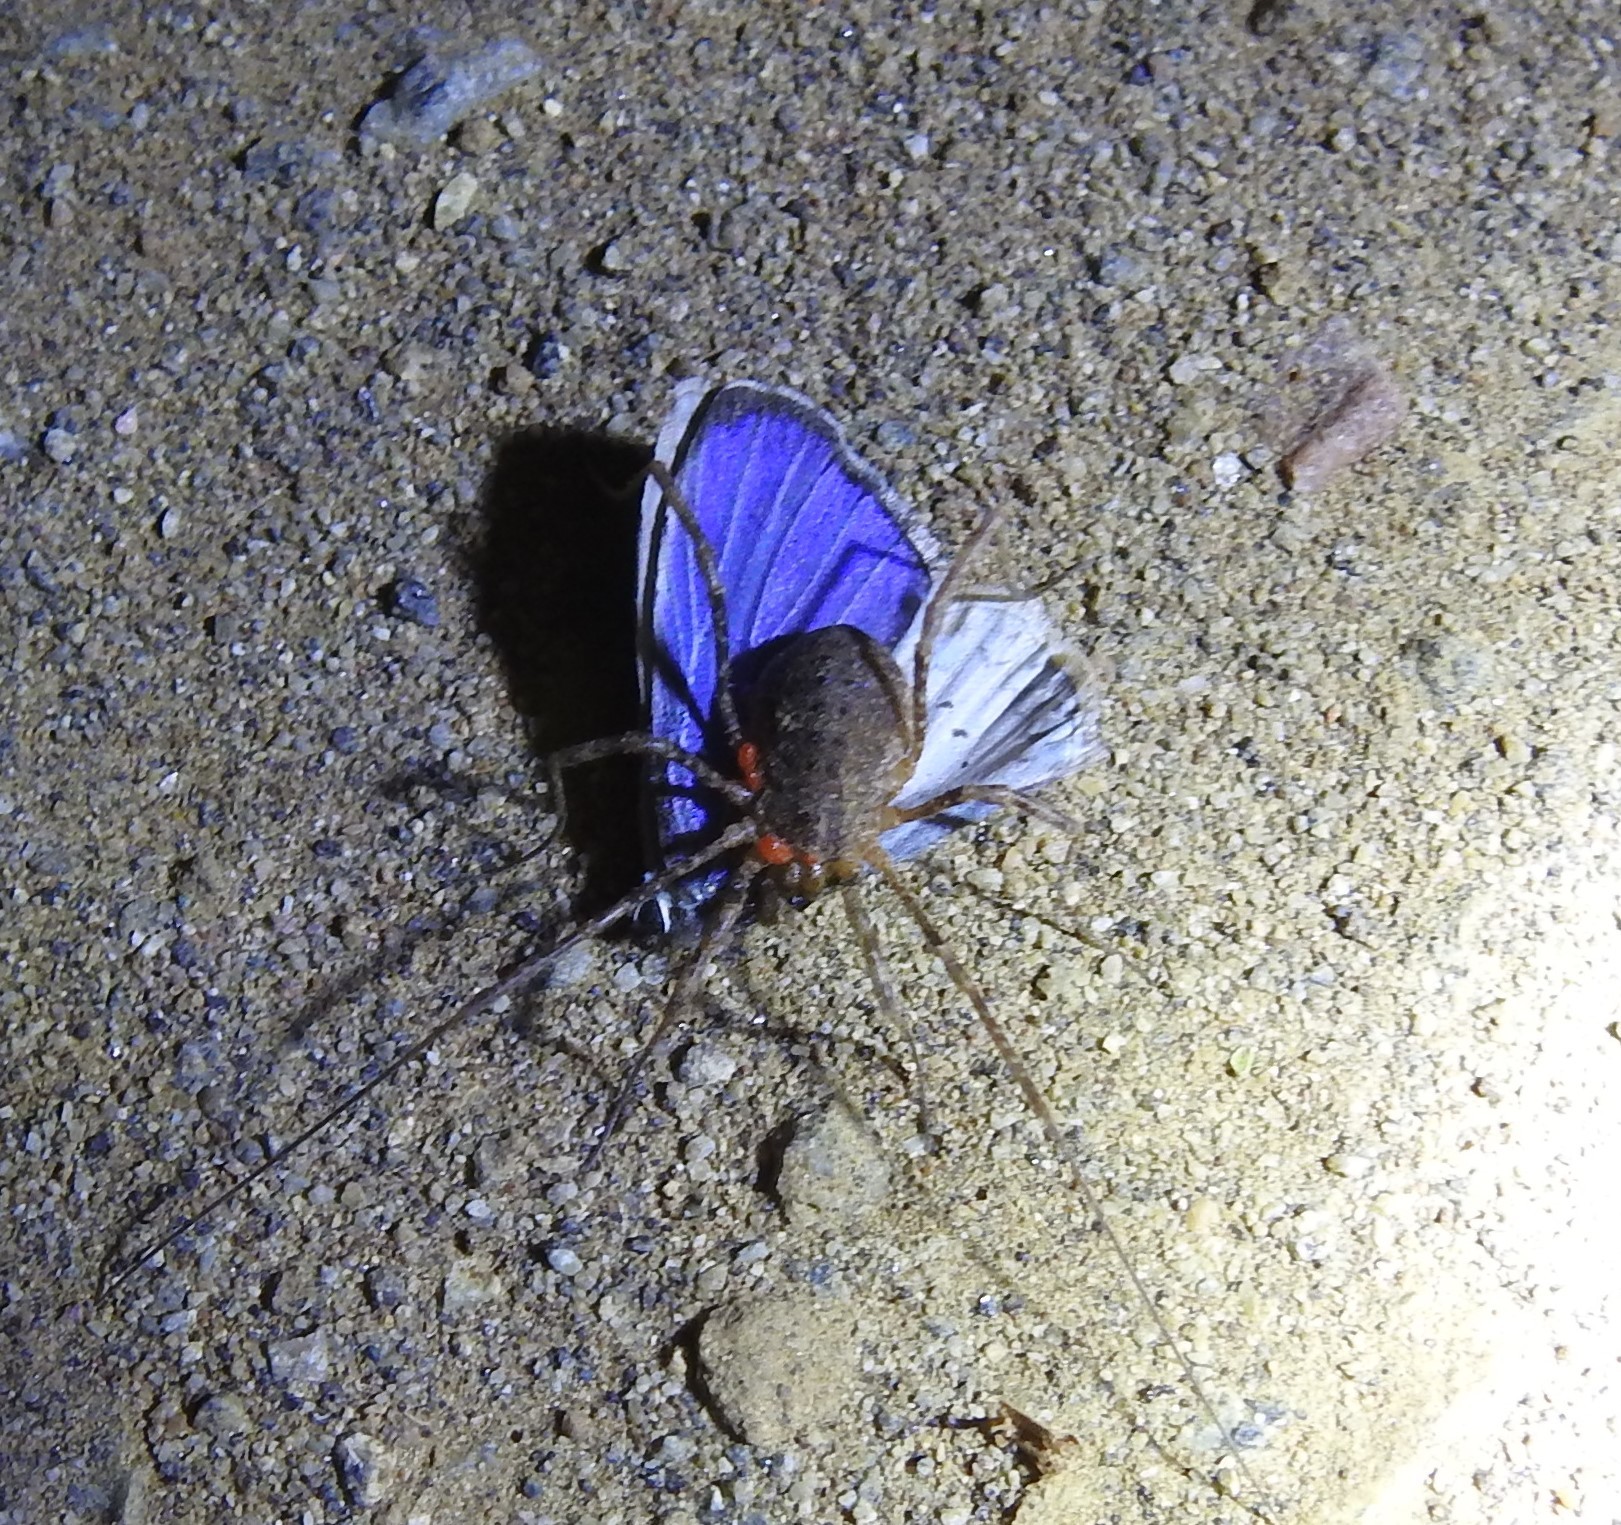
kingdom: Animalia
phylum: Arthropoda
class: Insecta
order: Lepidoptera
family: Lycaenidae
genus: Celastrina
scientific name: Celastrina ladon
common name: Spring azure
